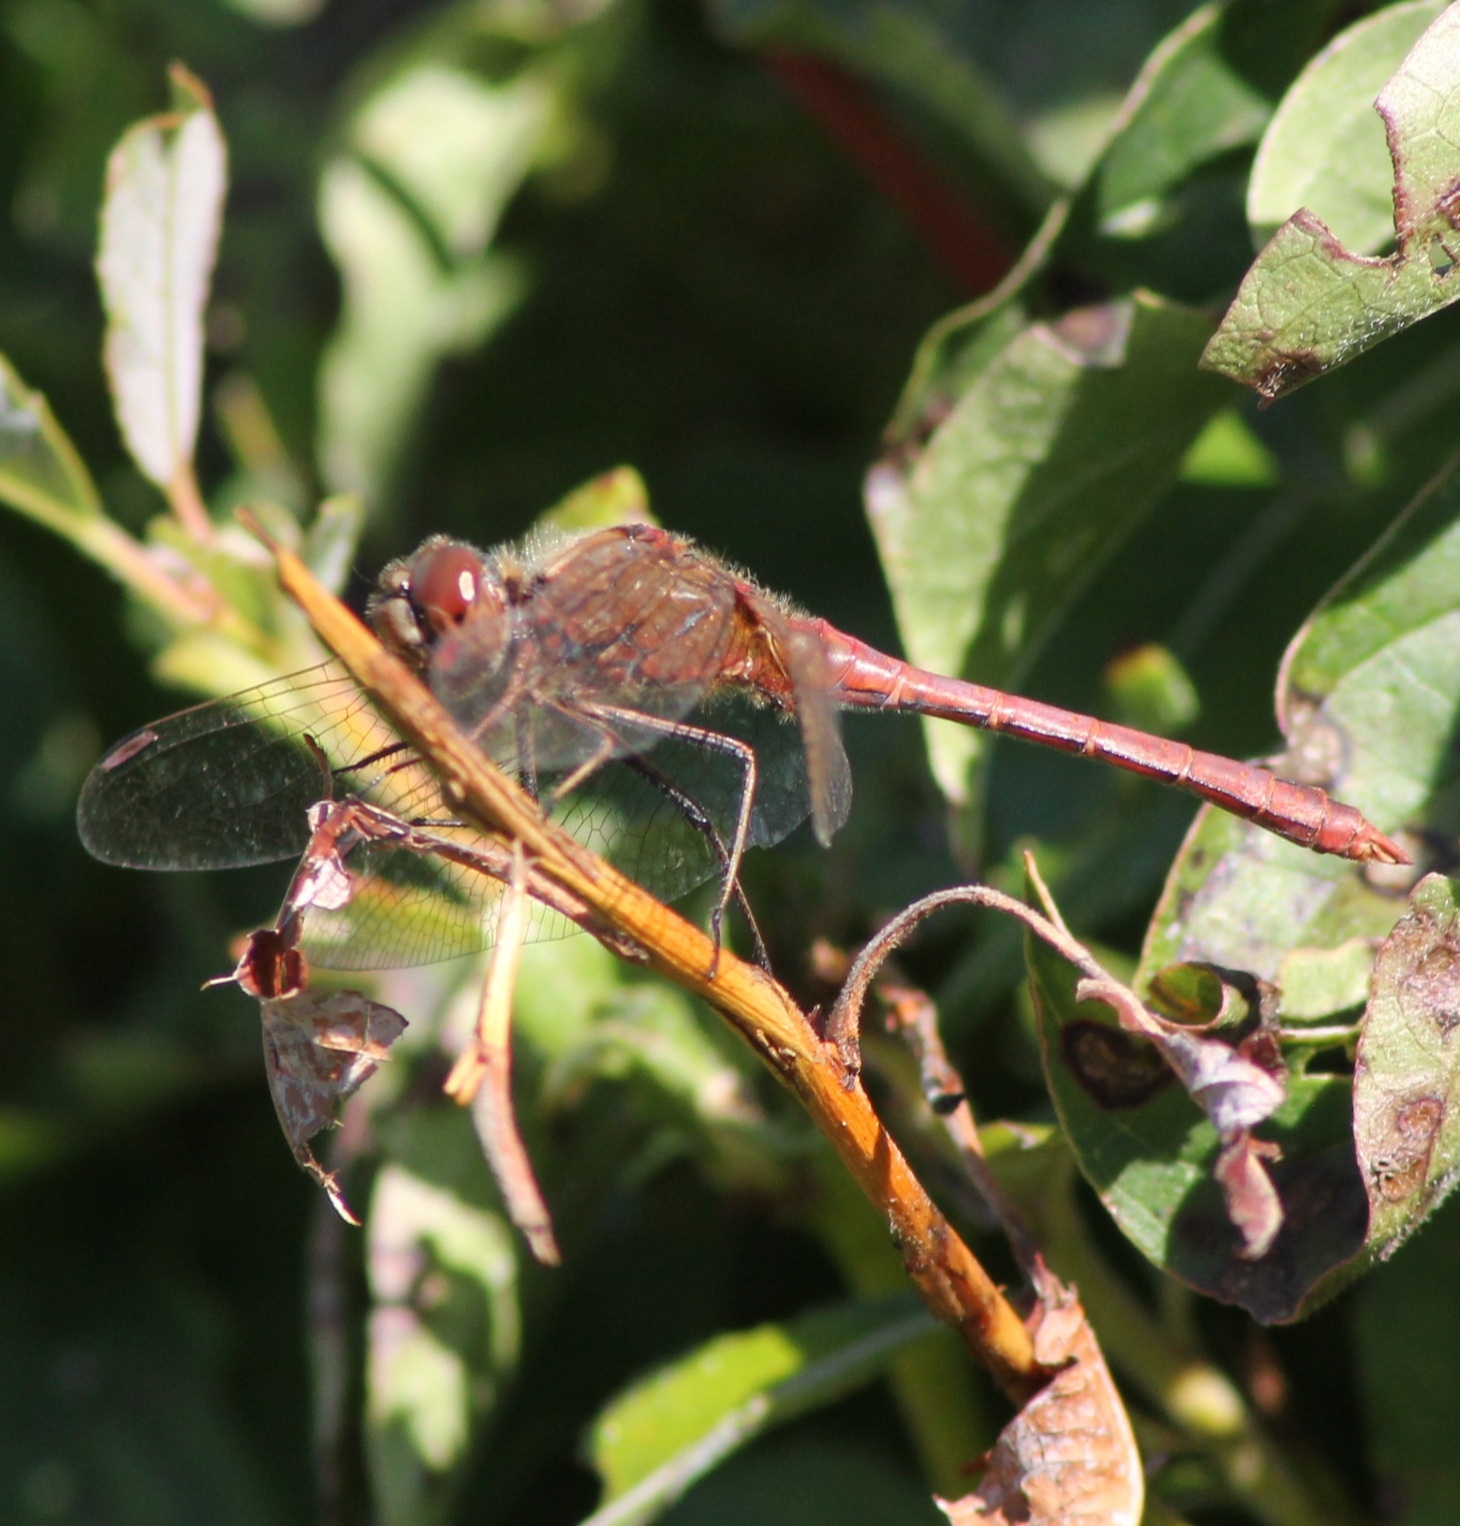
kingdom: Animalia
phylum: Arthropoda
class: Insecta
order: Odonata
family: Libellulidae
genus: Sympetrum
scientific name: Sympetrum vulgatum
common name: Vagrant darter
